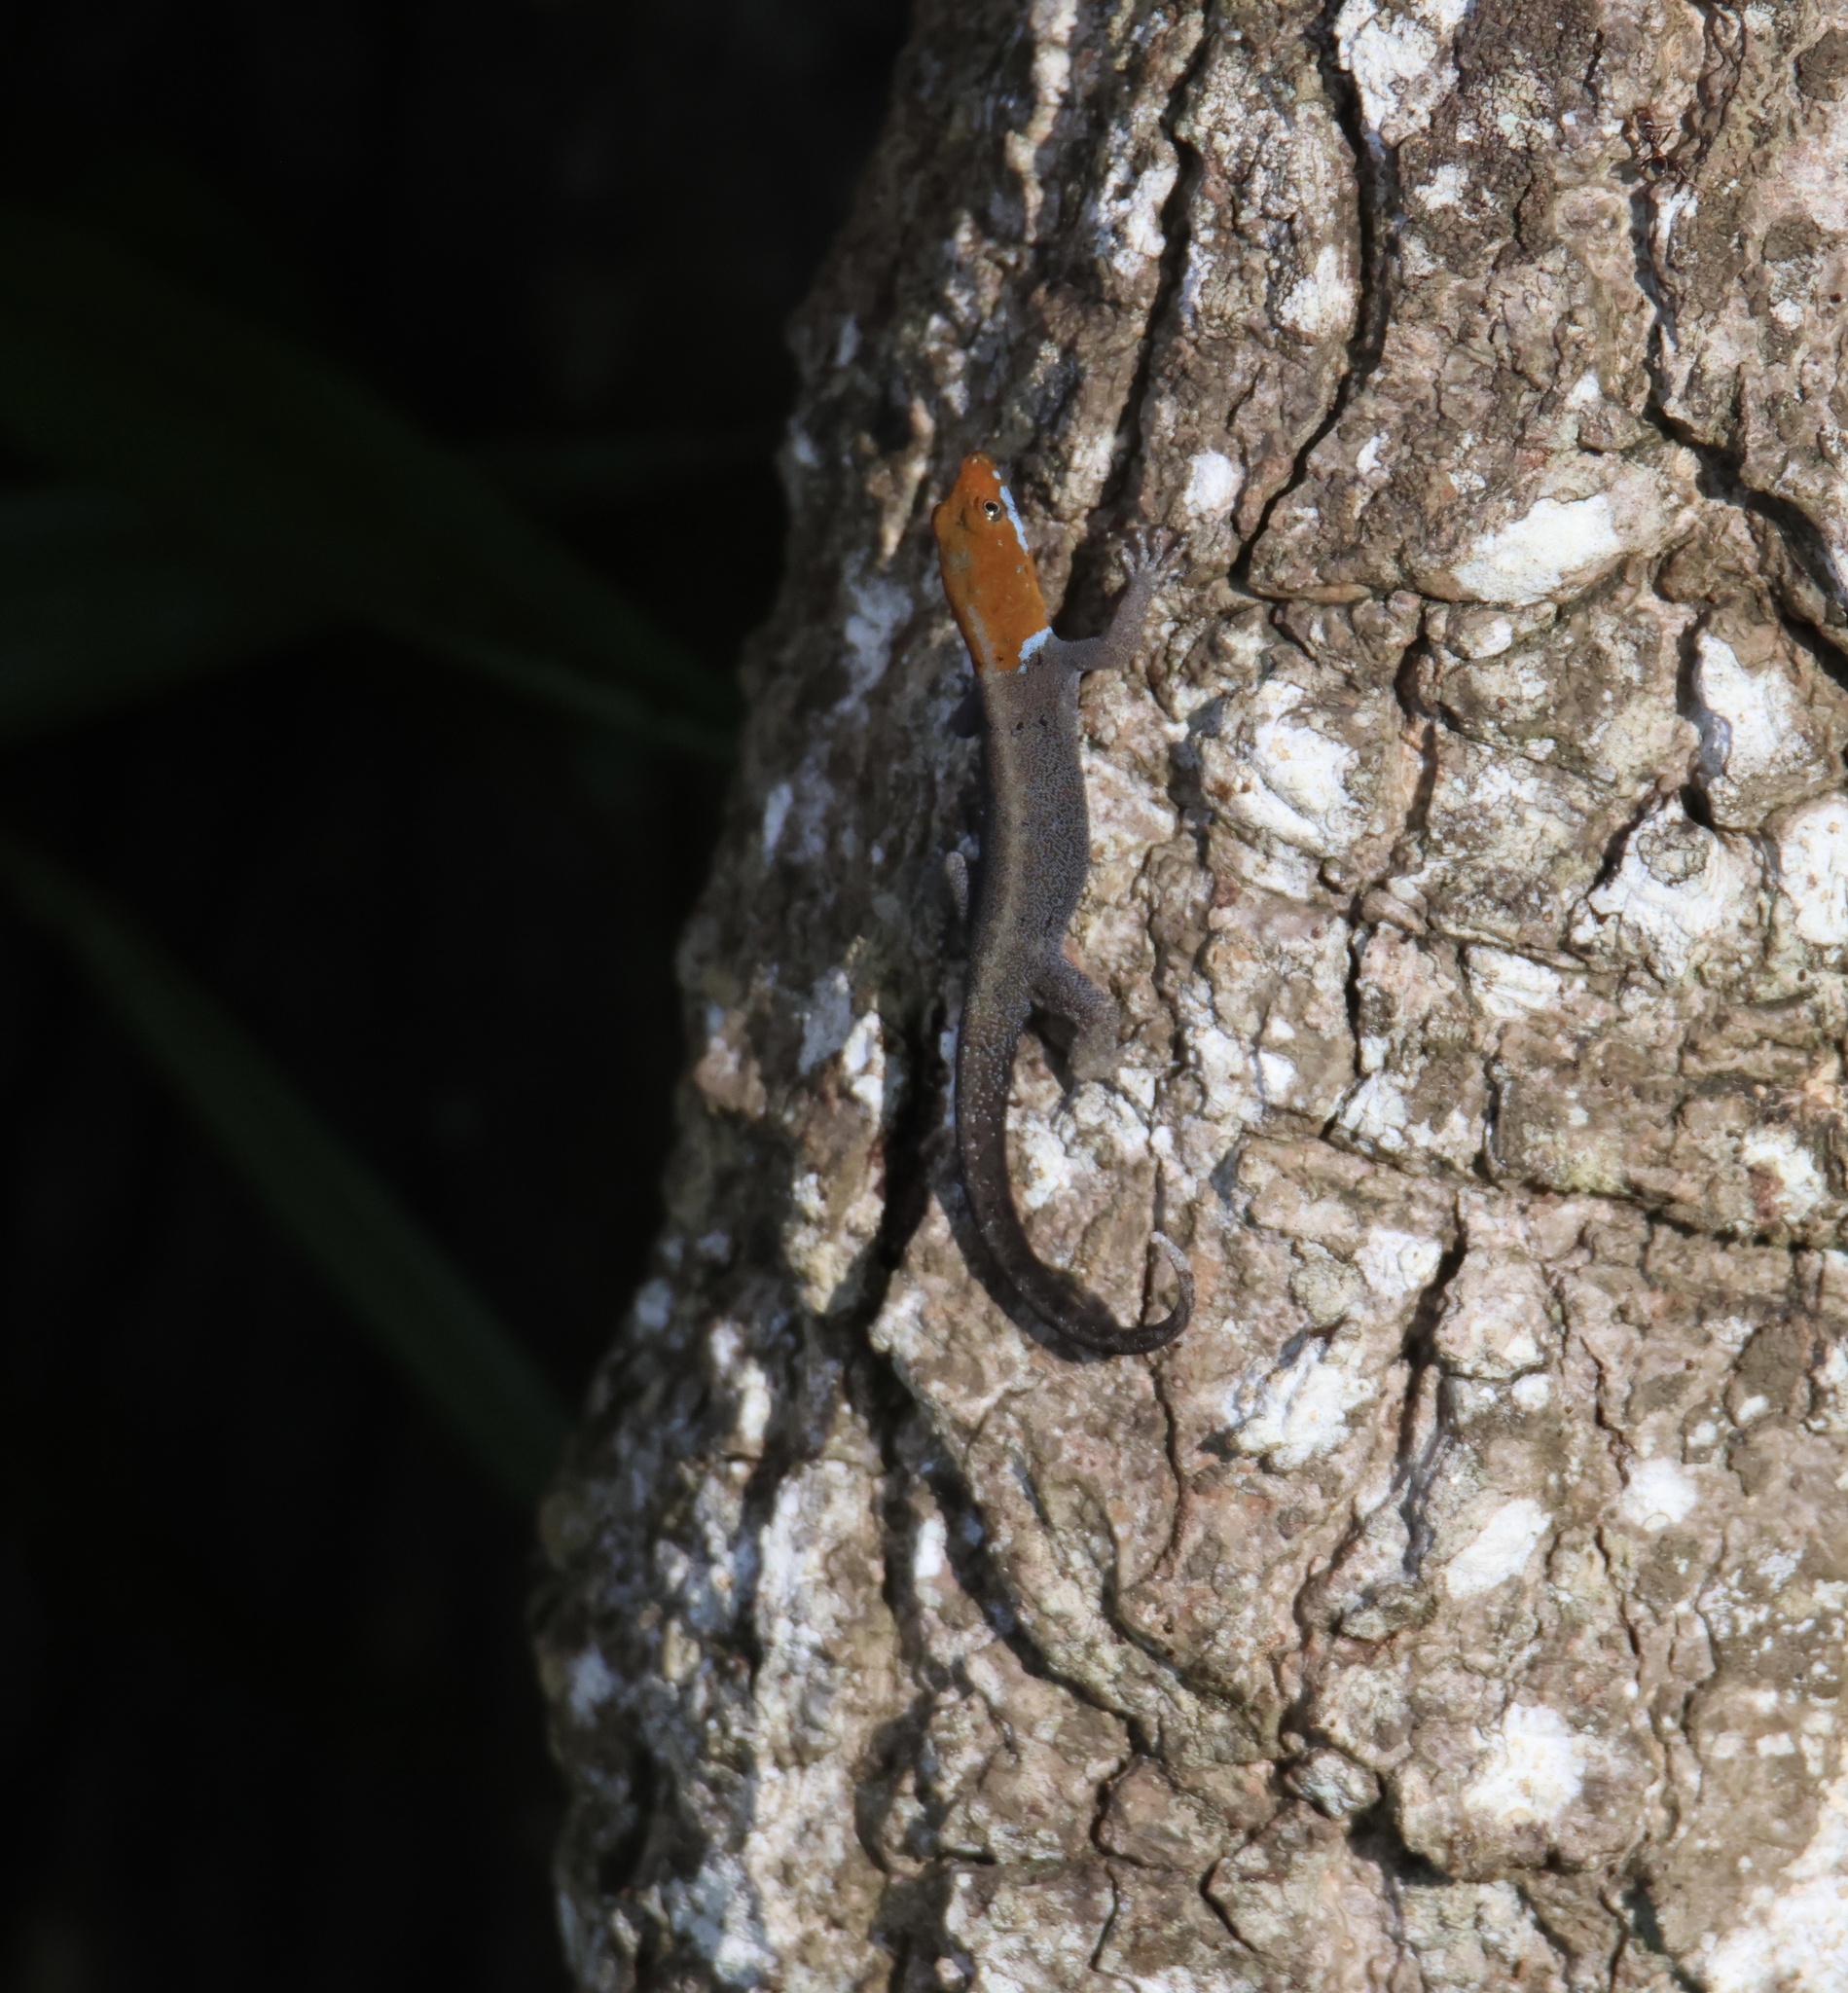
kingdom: Animalia
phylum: Chordata
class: Squamata
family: Sphaerodactylidae
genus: Gonatodes
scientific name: Gonatodes albogularis
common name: Yellow-headed gecko
